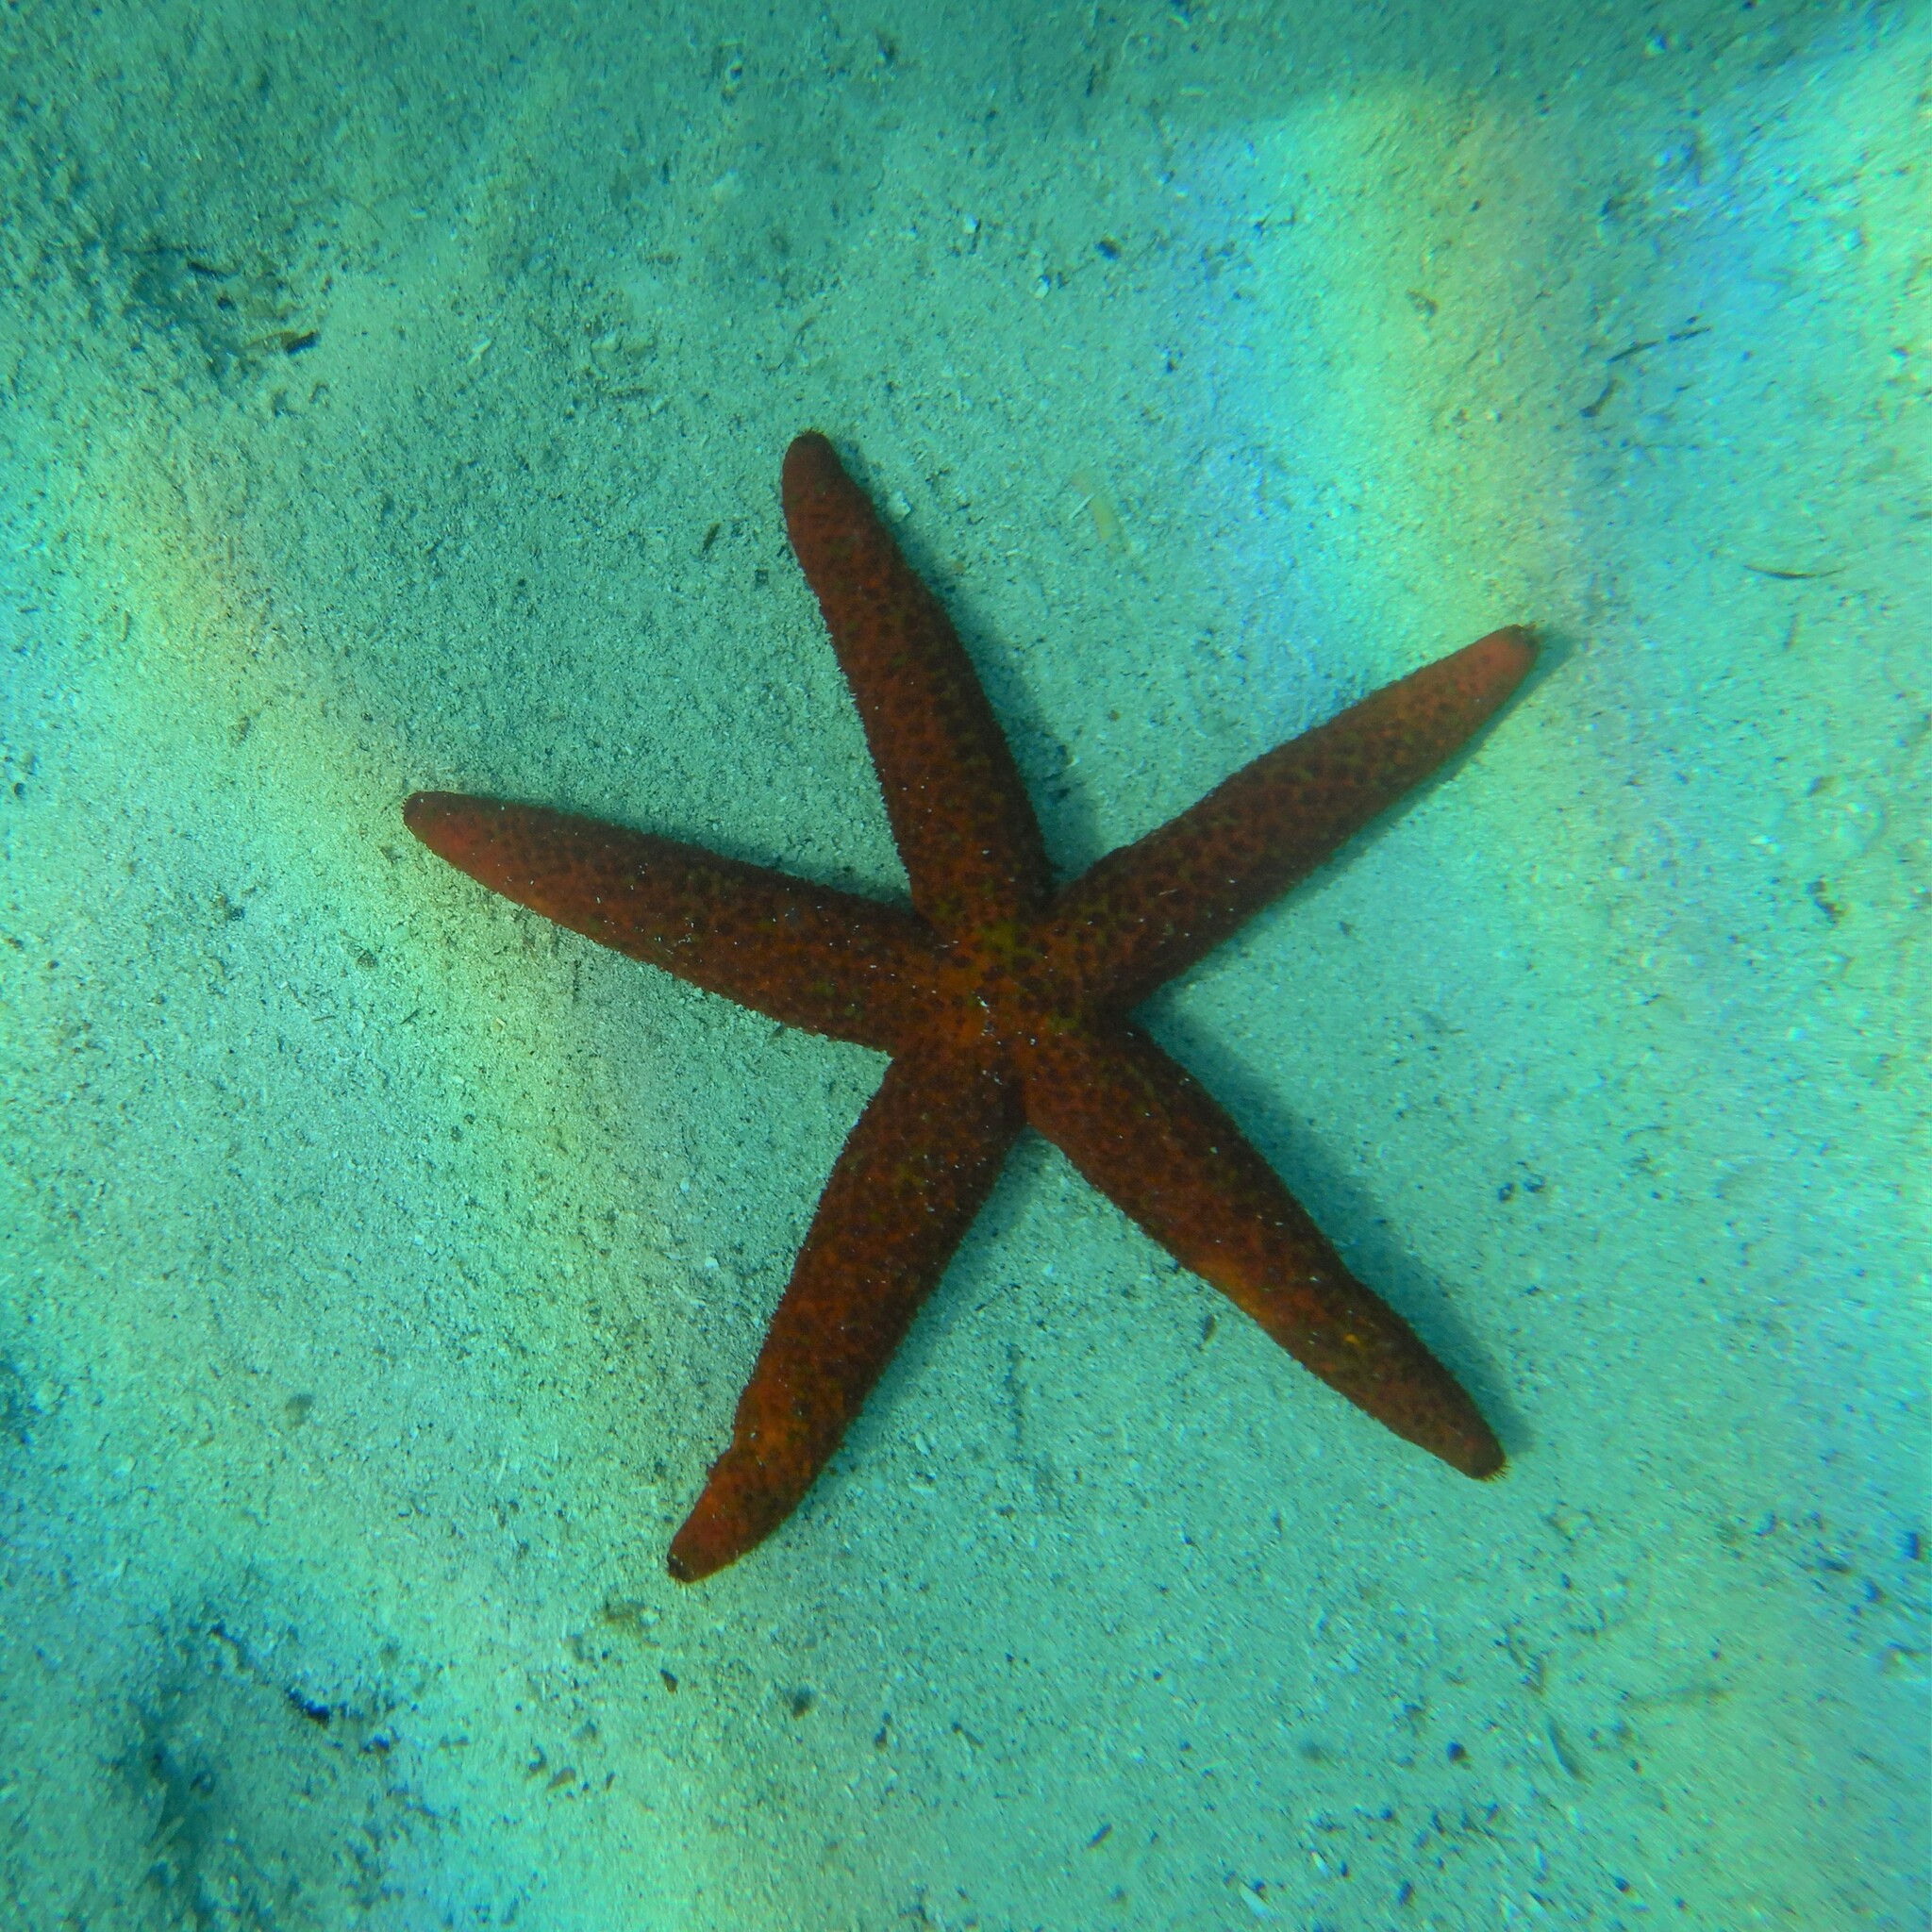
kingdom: Animalia
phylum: Echinodermata
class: Asteroidea
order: Spinulosida
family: Echinasteridae
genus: Echinaster
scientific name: Echinaster sepositus
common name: Red starfish
